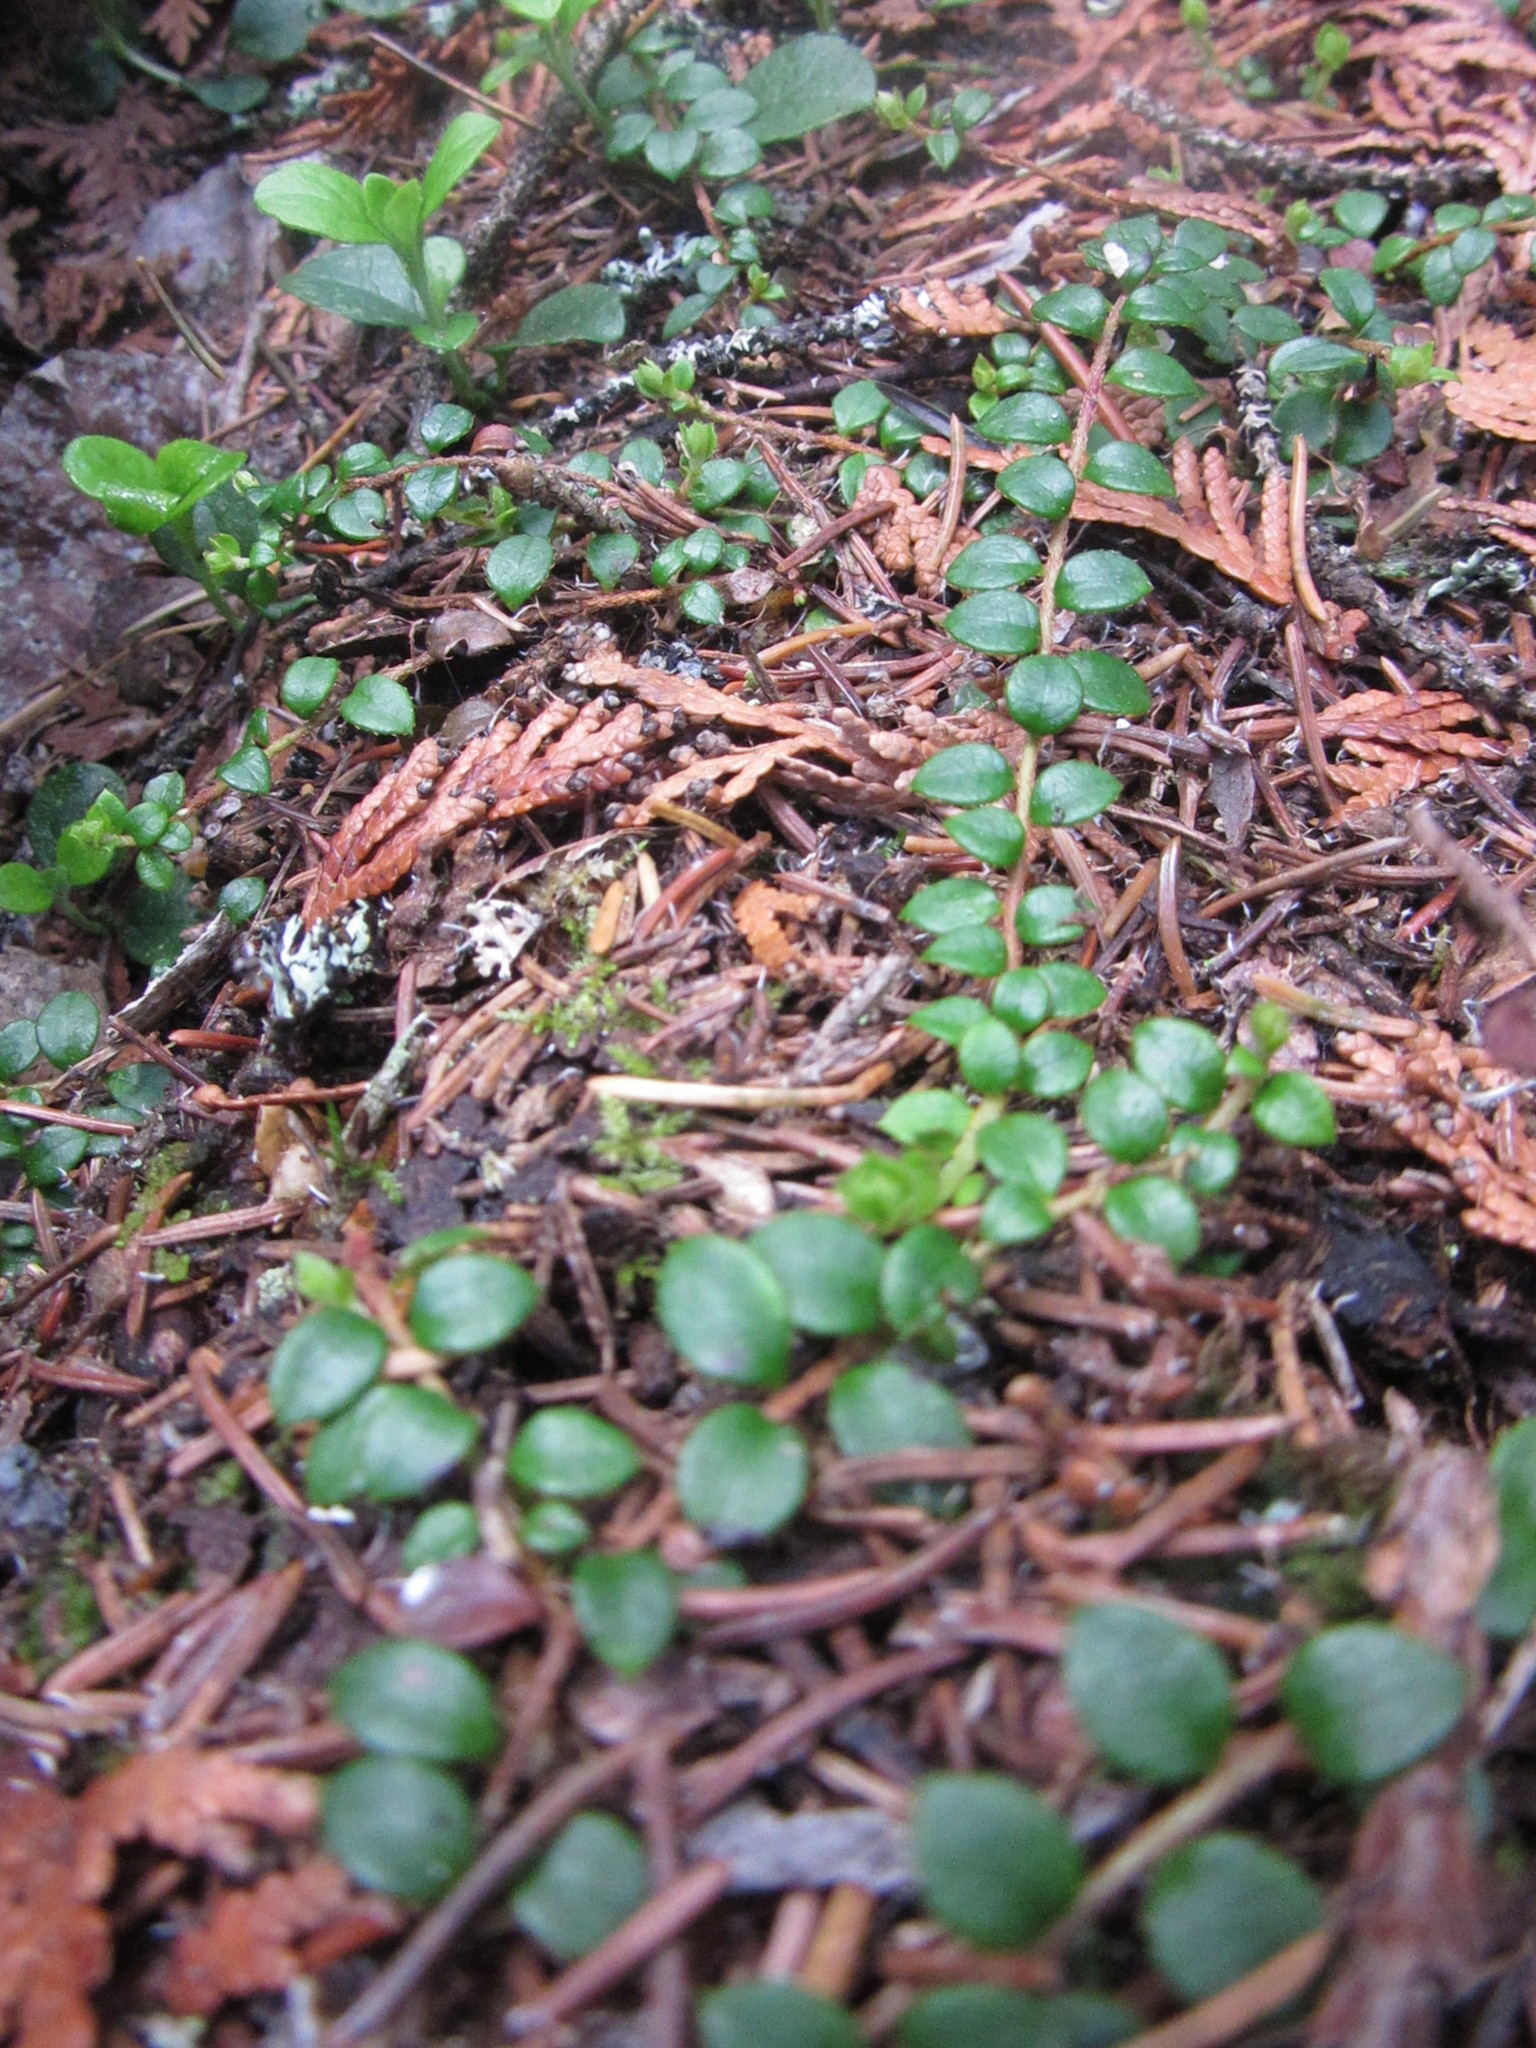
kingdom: Plantae
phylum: Tracheophyta
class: Magnoliopsida
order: Ericales
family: Ericaceae
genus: Gaultheria
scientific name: Gaultheria hispidula
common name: Cancer wintergreen
